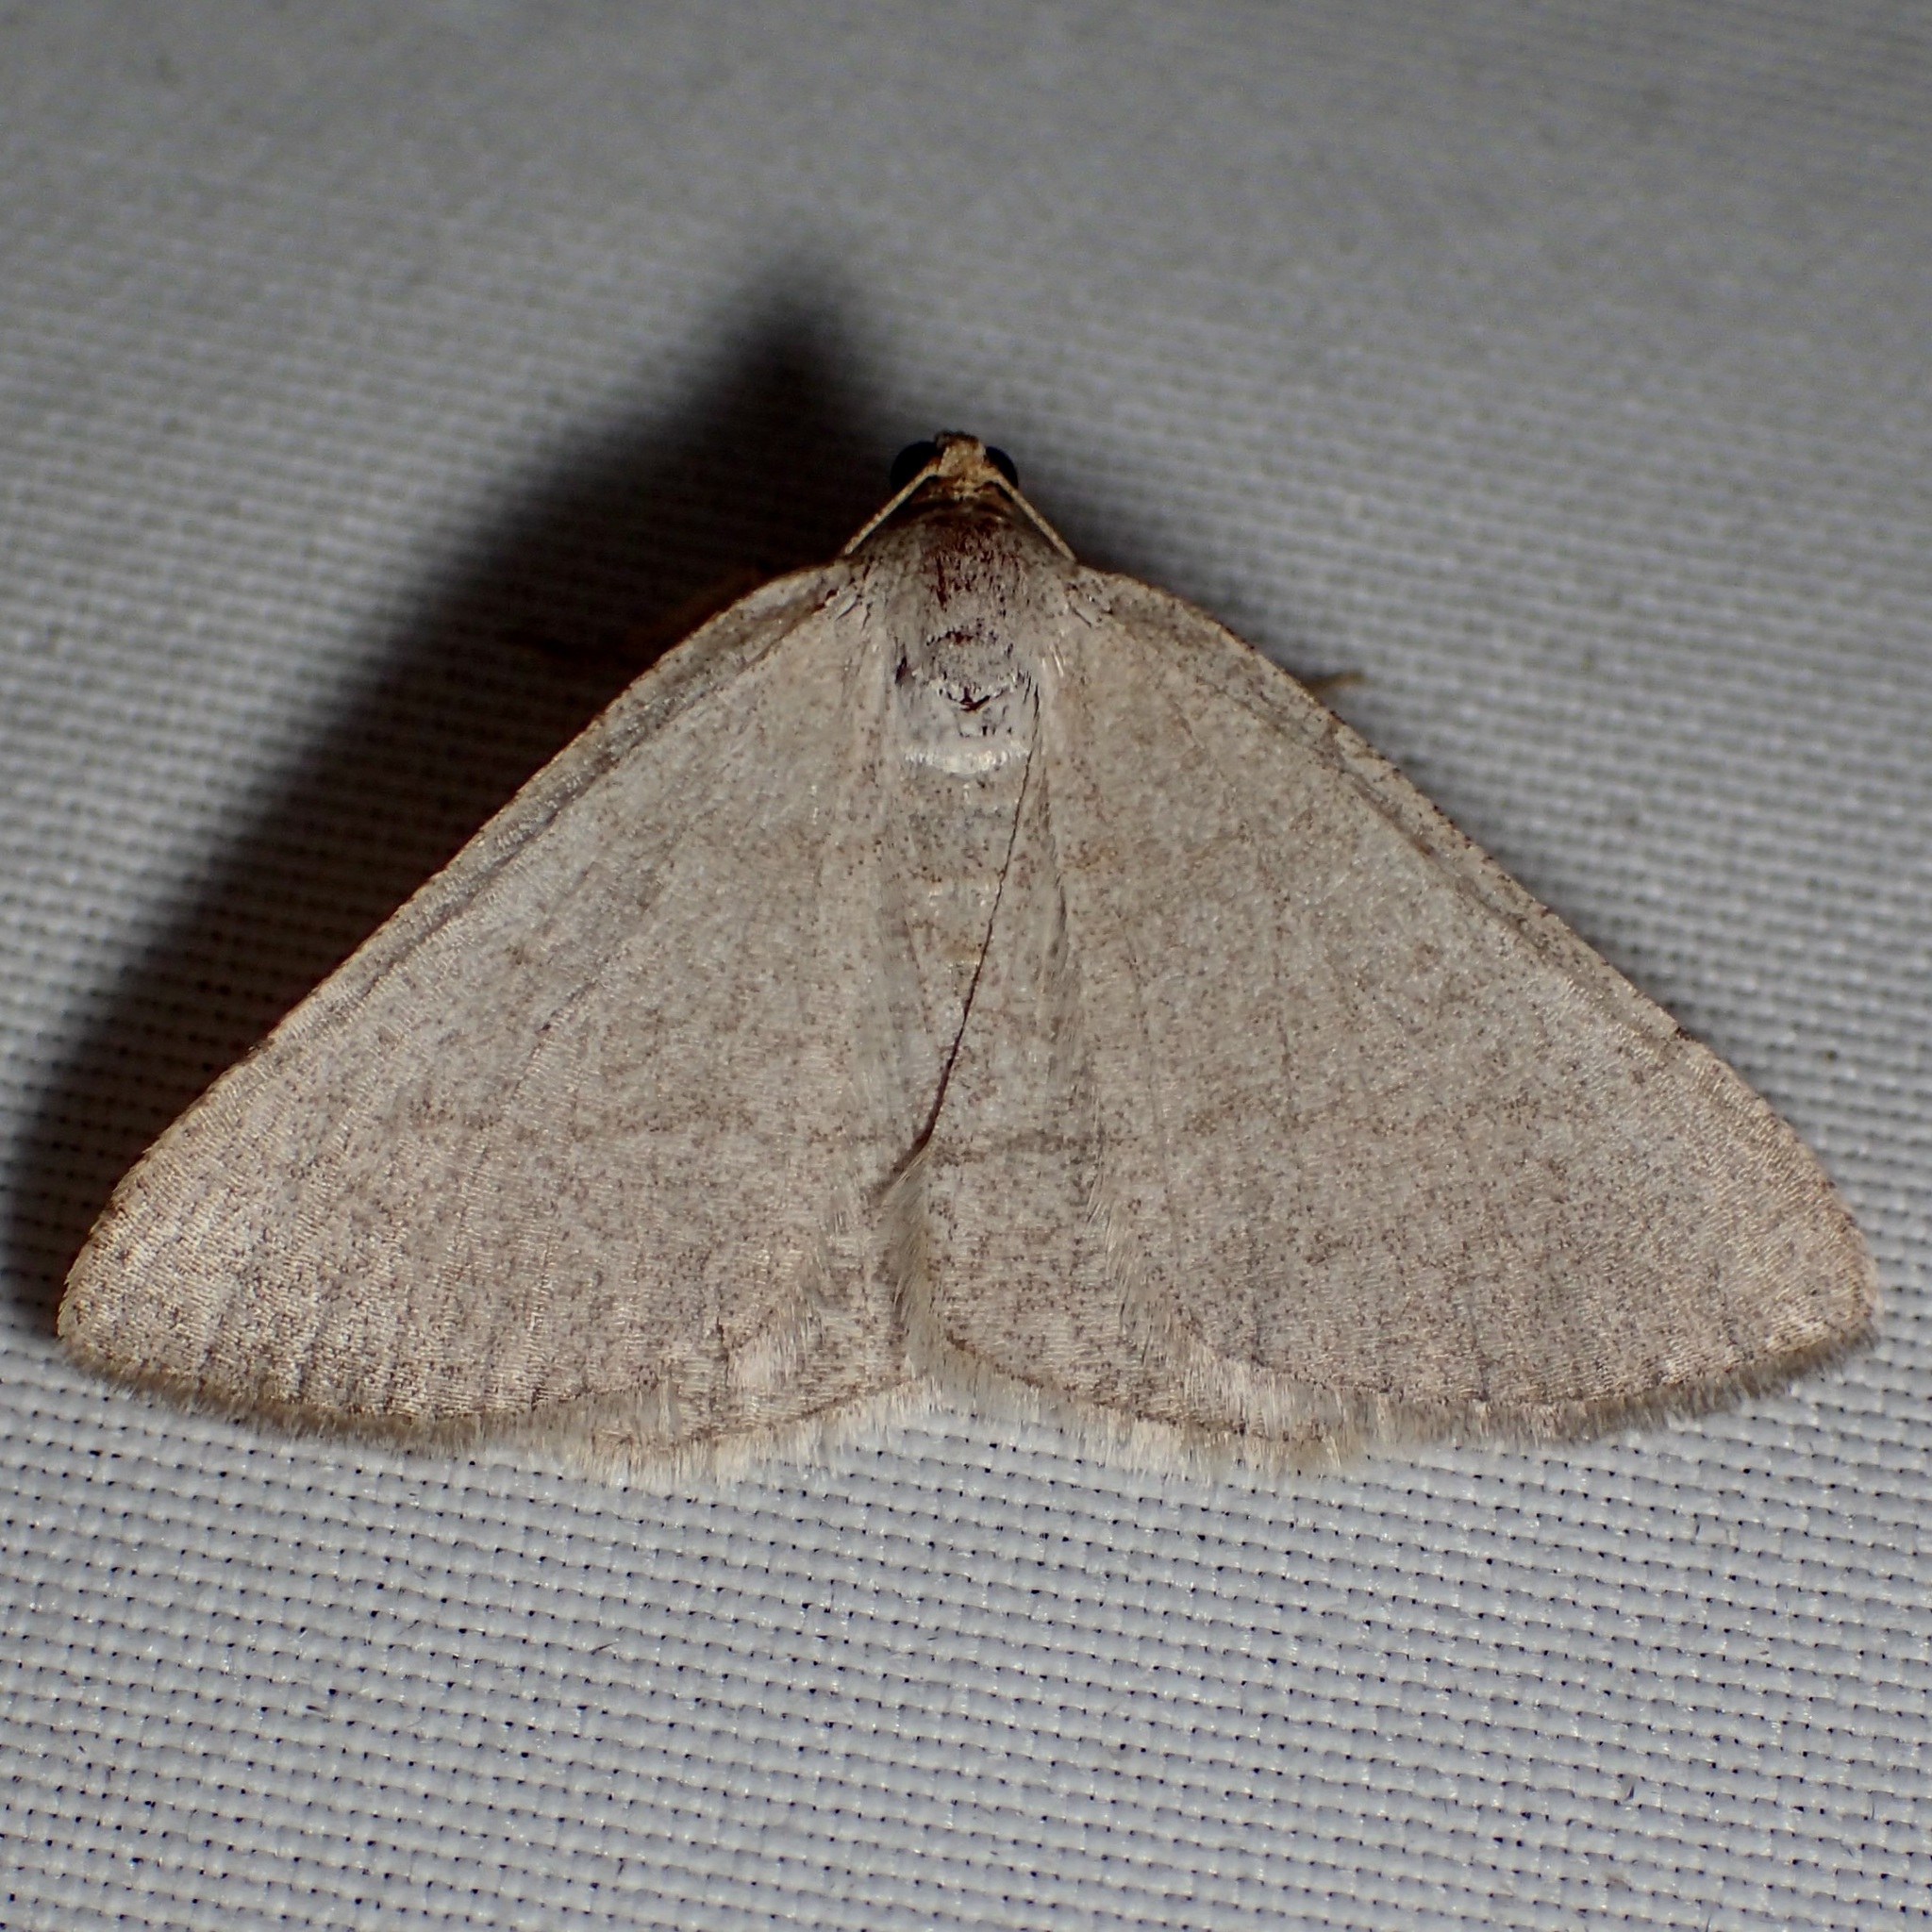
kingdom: Animalia
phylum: Arthropoda
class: Insecta
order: Lepidoptera
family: Geometridae
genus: Macaria
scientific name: Macaria tenebrosata
